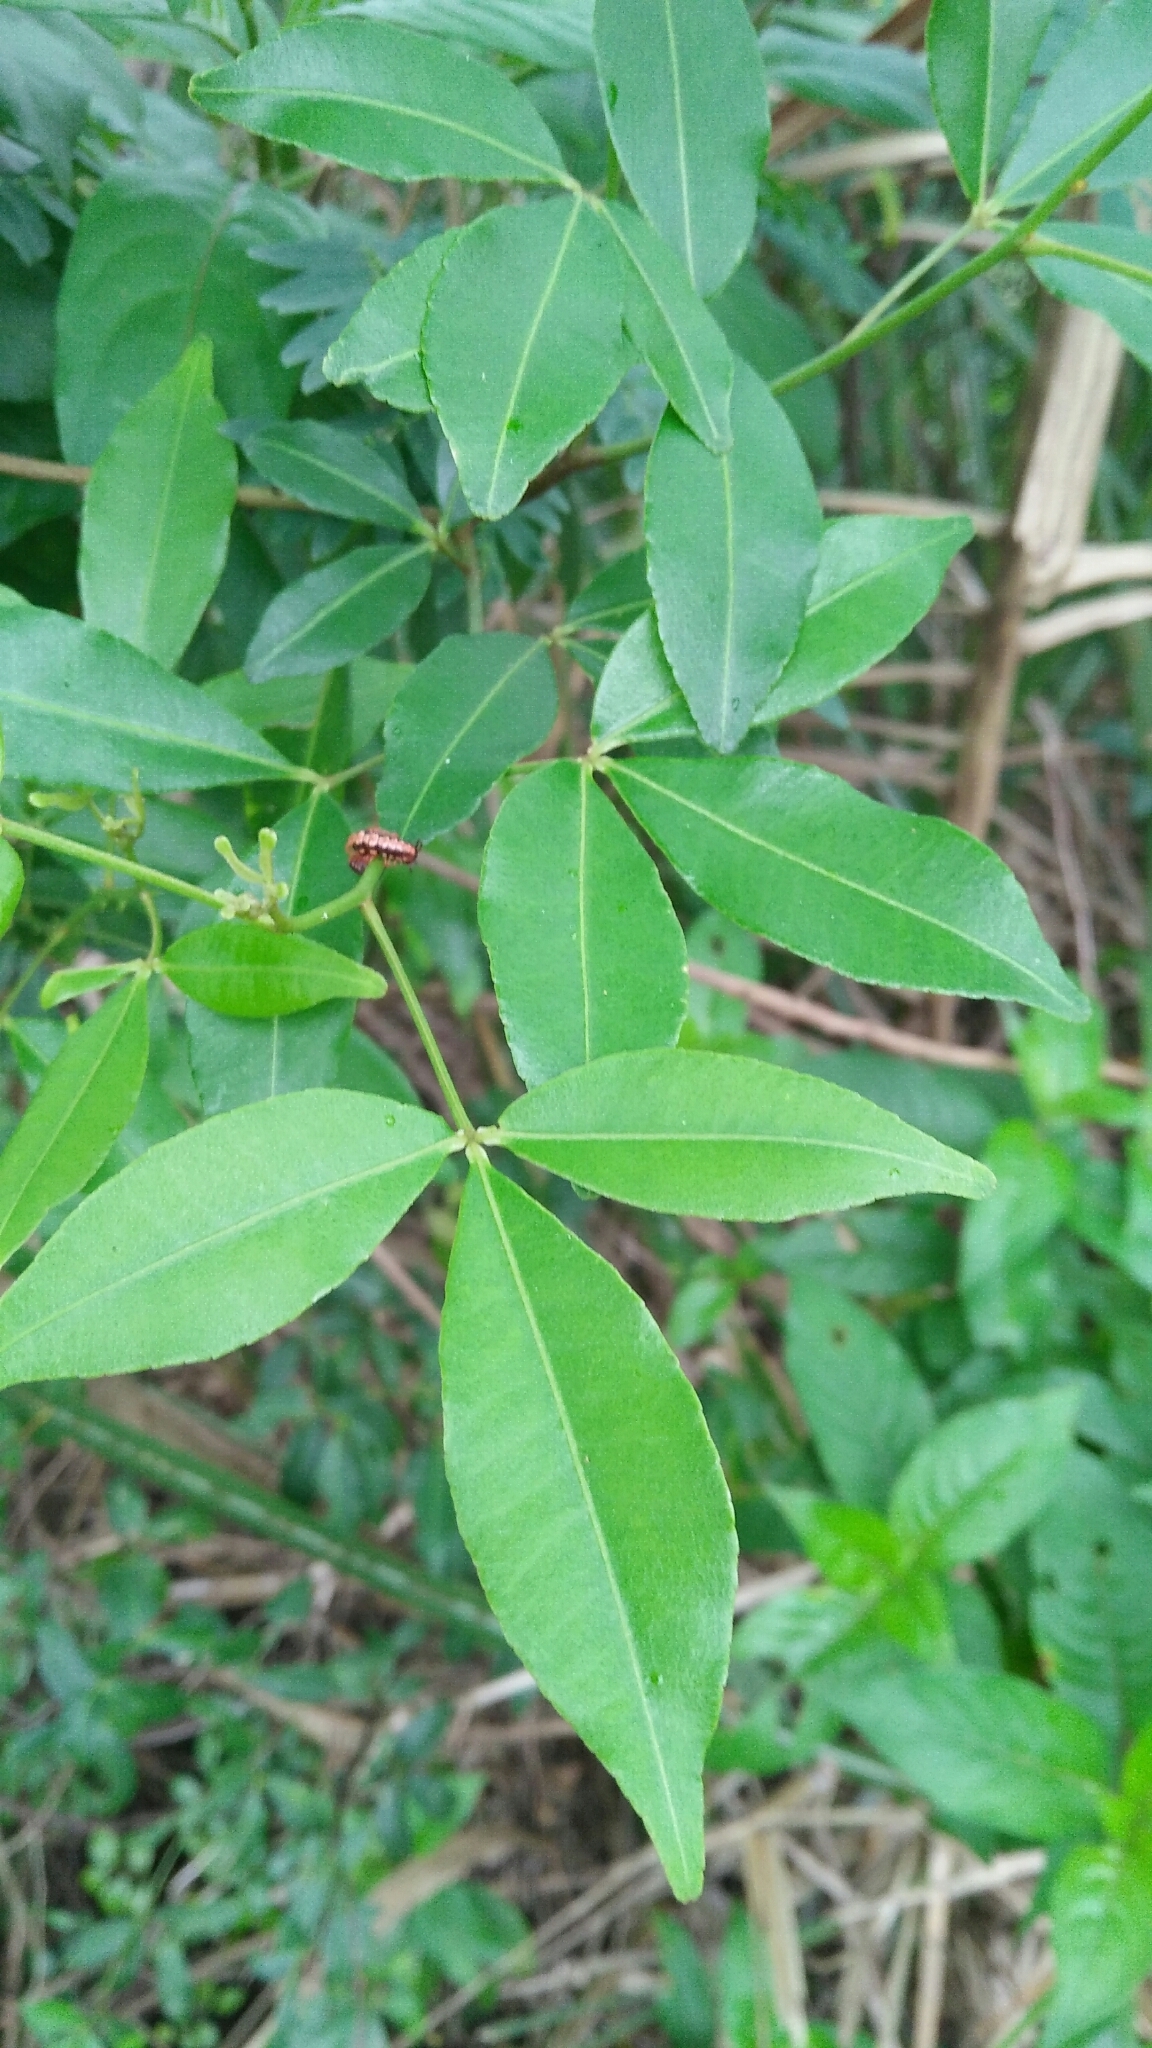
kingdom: Plantae
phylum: Tracheophyta
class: Magnoliopsida
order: Sapindales
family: Rutaceae
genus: Zanthoxylum
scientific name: Zanthoxylum asiaticum
